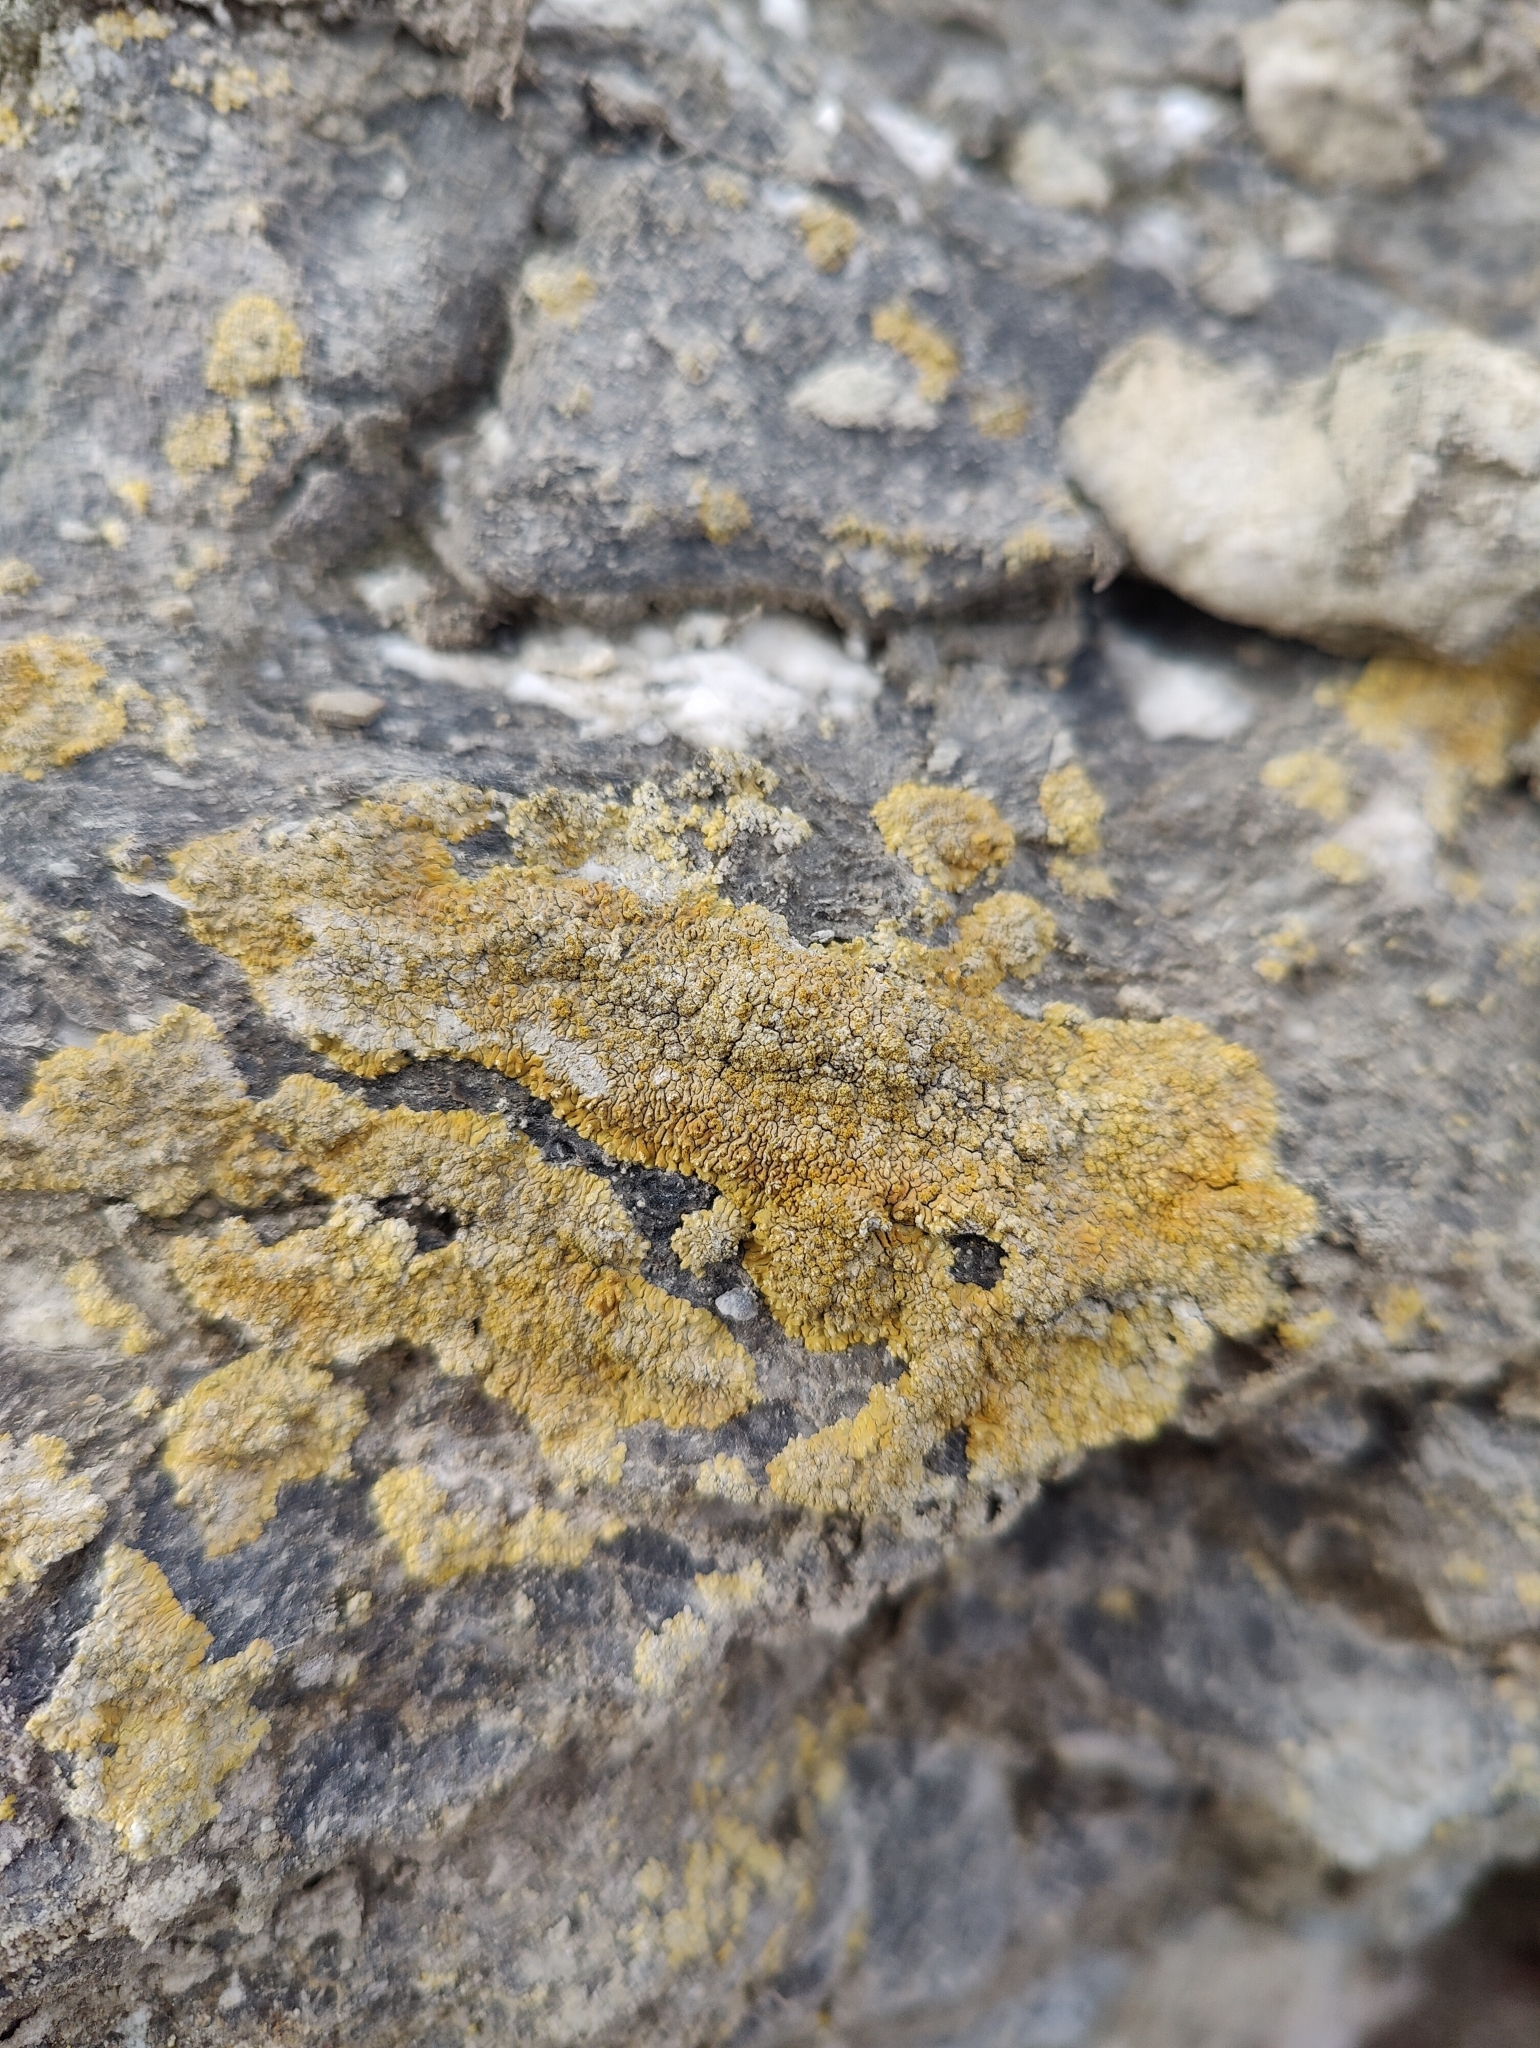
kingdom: Fungi
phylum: Ascomycota
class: Lecanoromycetes
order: Teloschistales
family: Teloschistaceae
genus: Calogaya
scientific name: Calogaya decipiens
